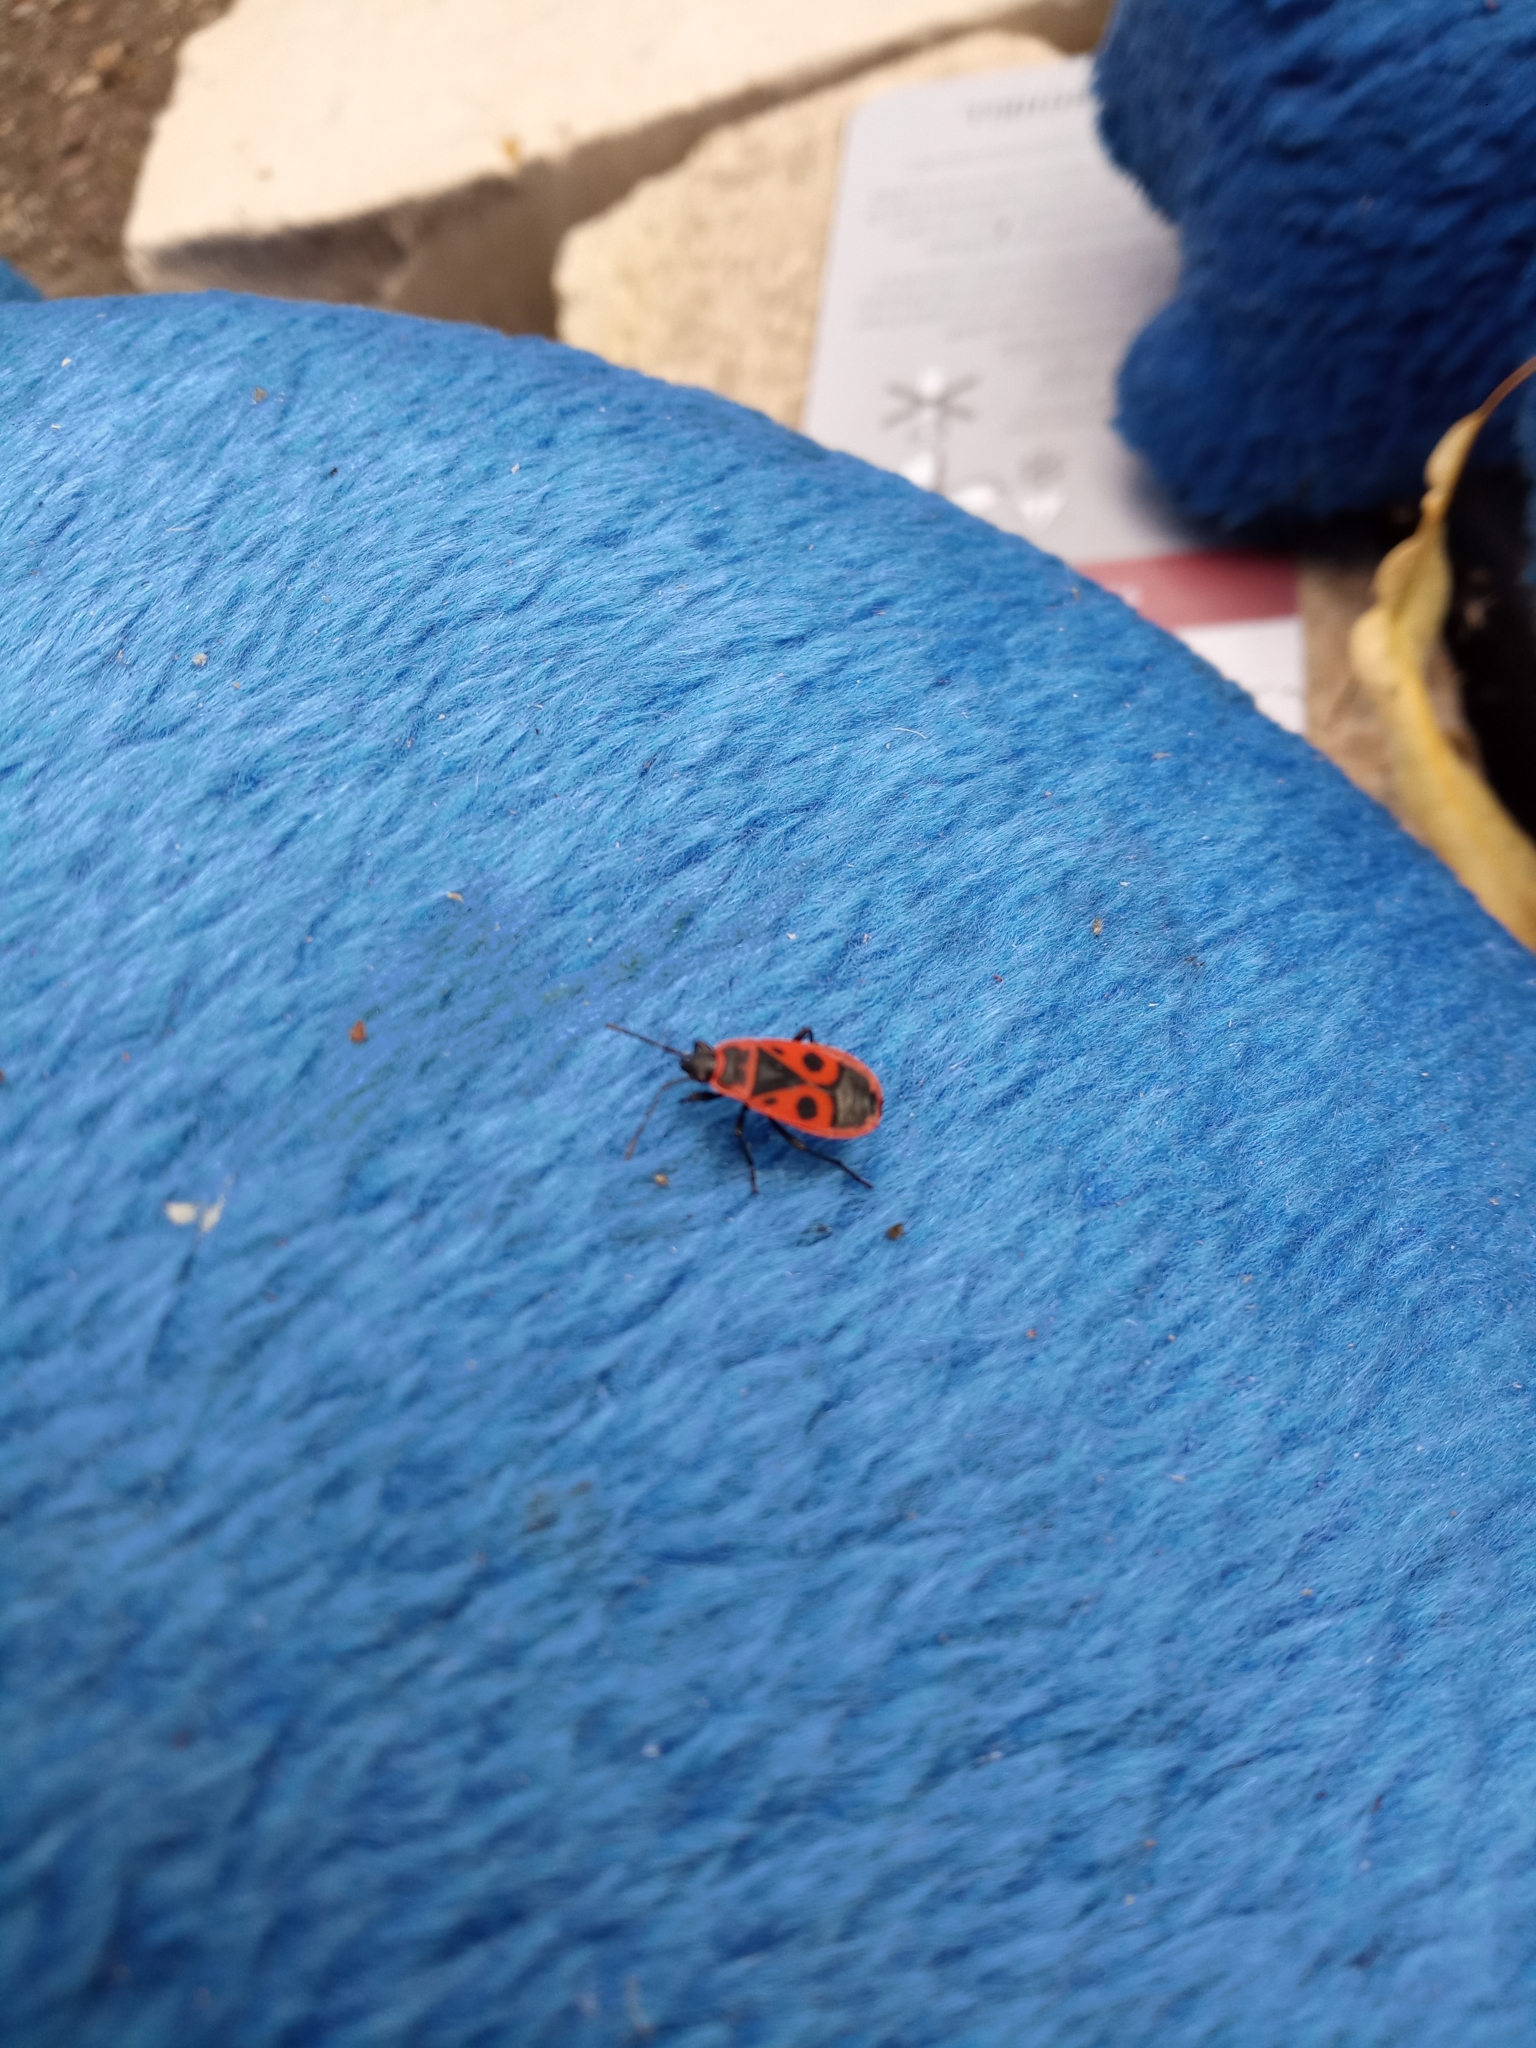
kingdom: Animalia
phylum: Arthropoda
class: Insecta
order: Hemiptera
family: Pyrrhocoridae
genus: Pyrrhocoris
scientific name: Pyrrhocoris apterus
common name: Firebug
